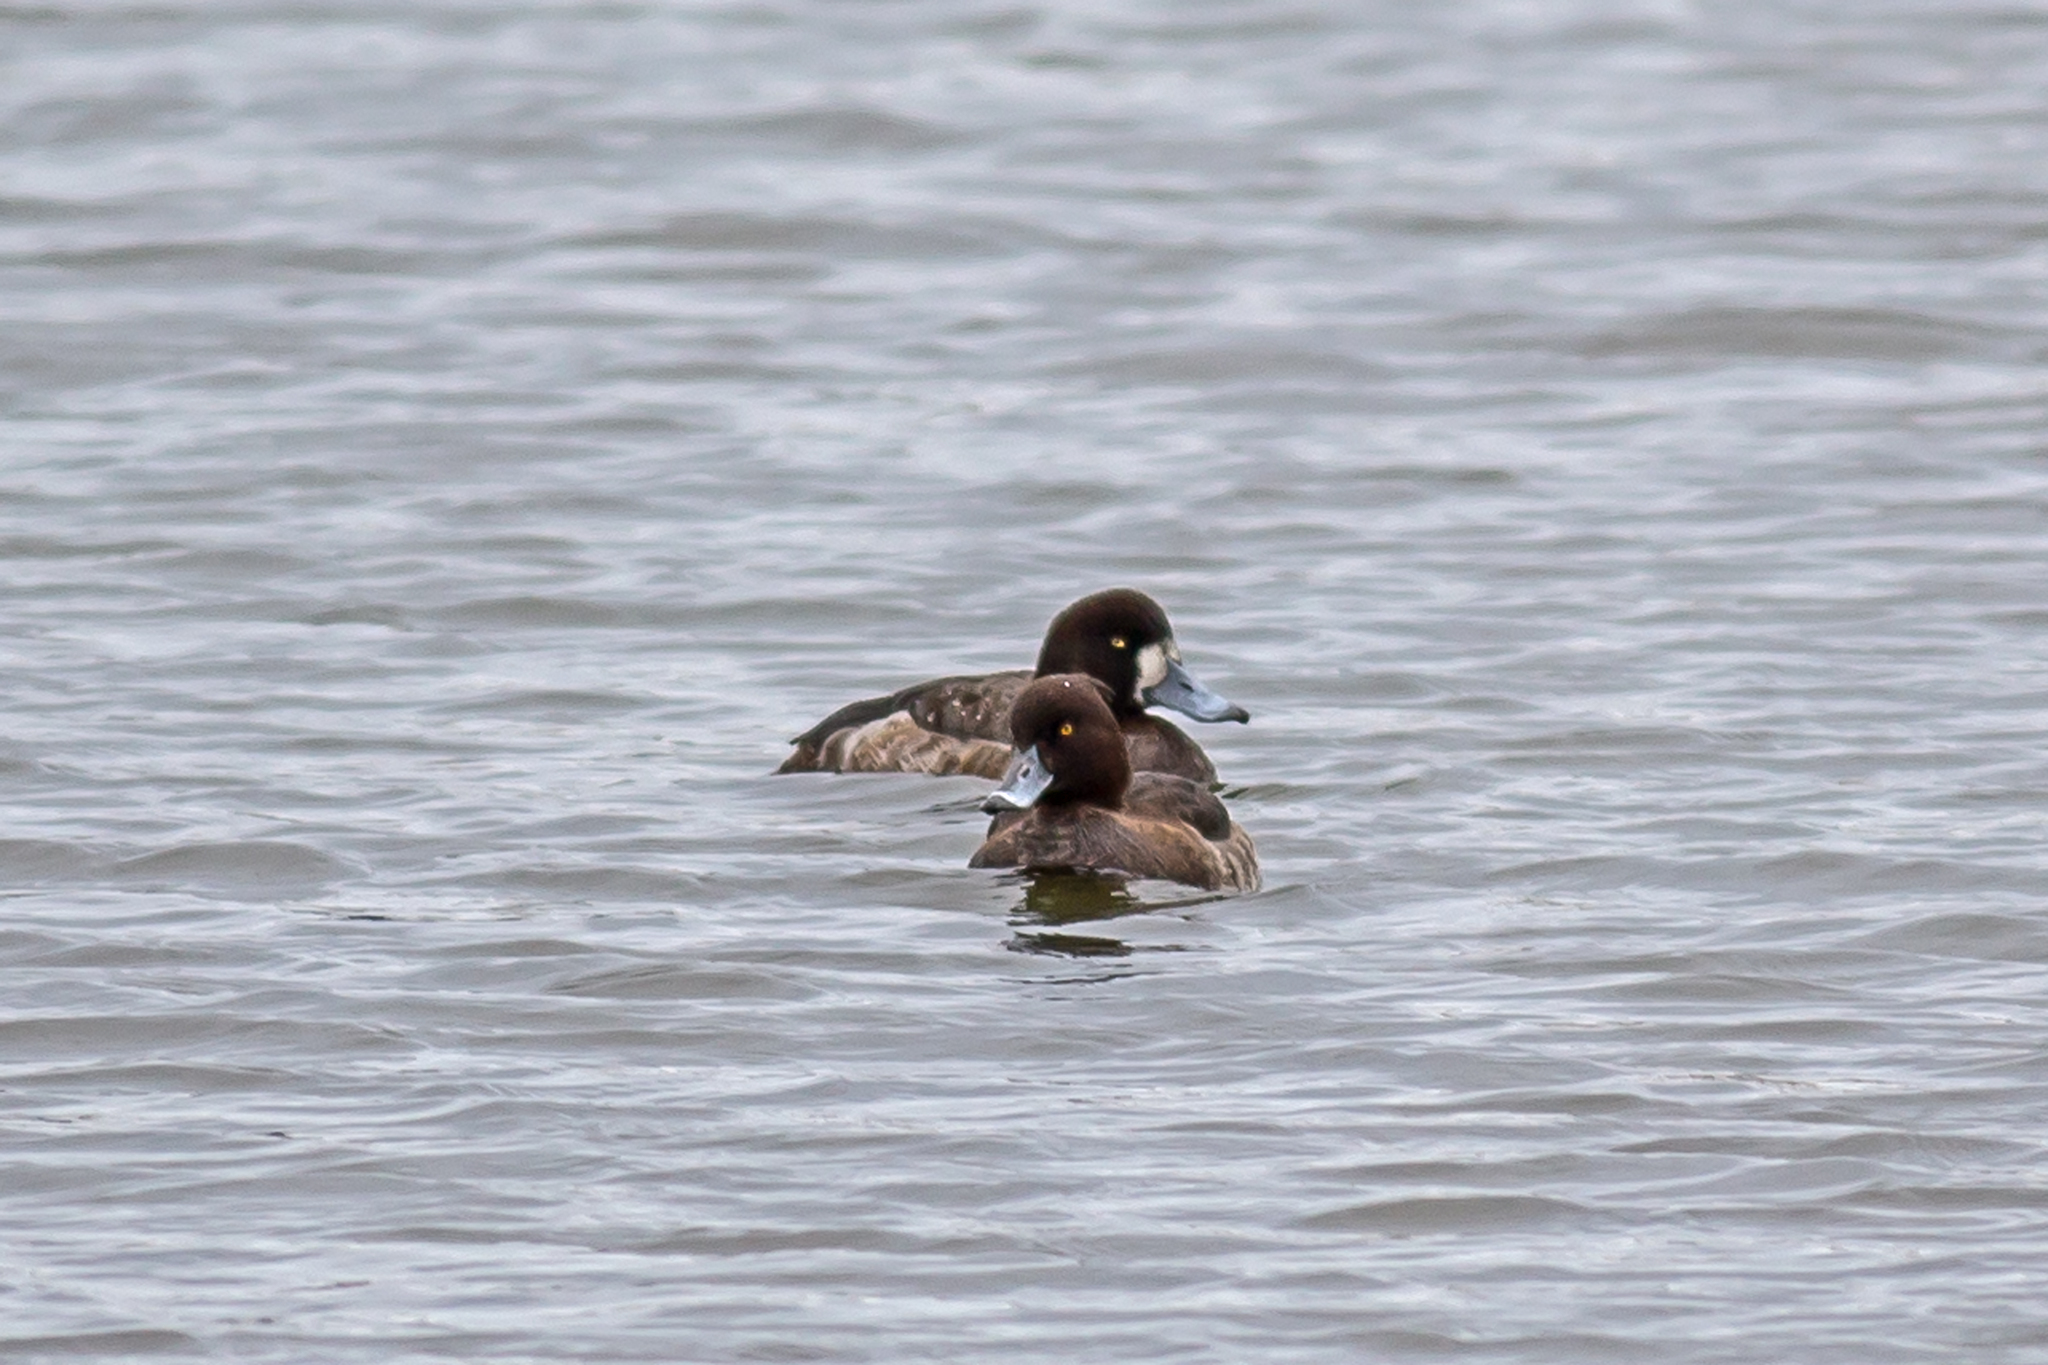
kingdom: Animalia
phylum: Chordata
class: Aves
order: Anseriformes
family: Anatidae
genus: Aythya
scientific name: Aythya fuligula
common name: Tufted duck
